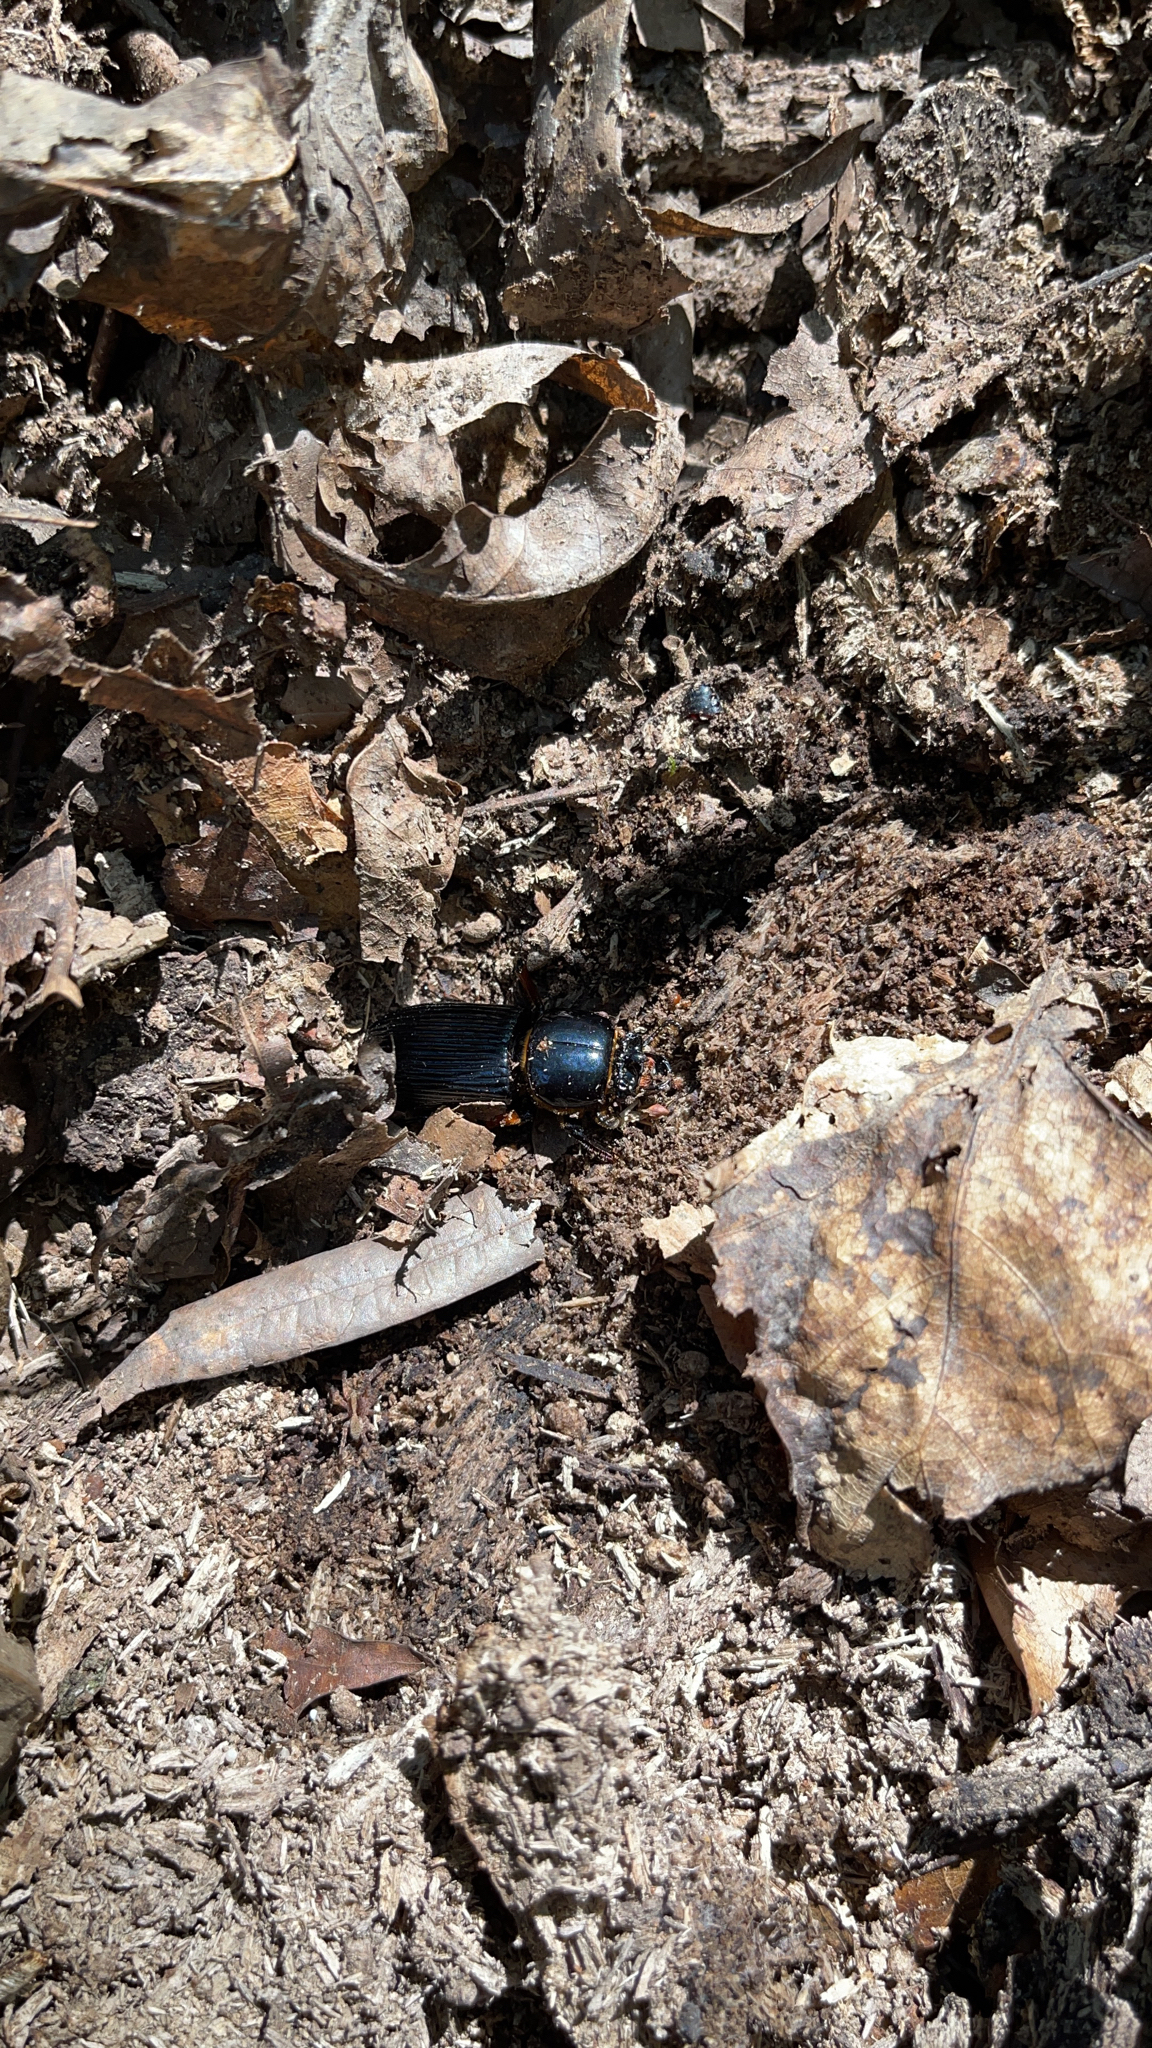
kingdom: Animalia
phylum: Arthropoda
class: Insecta
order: Coleoptera
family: Passalidae
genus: Odontotaenius
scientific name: Odontotaenius disjunctus
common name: Patent leather beetle
